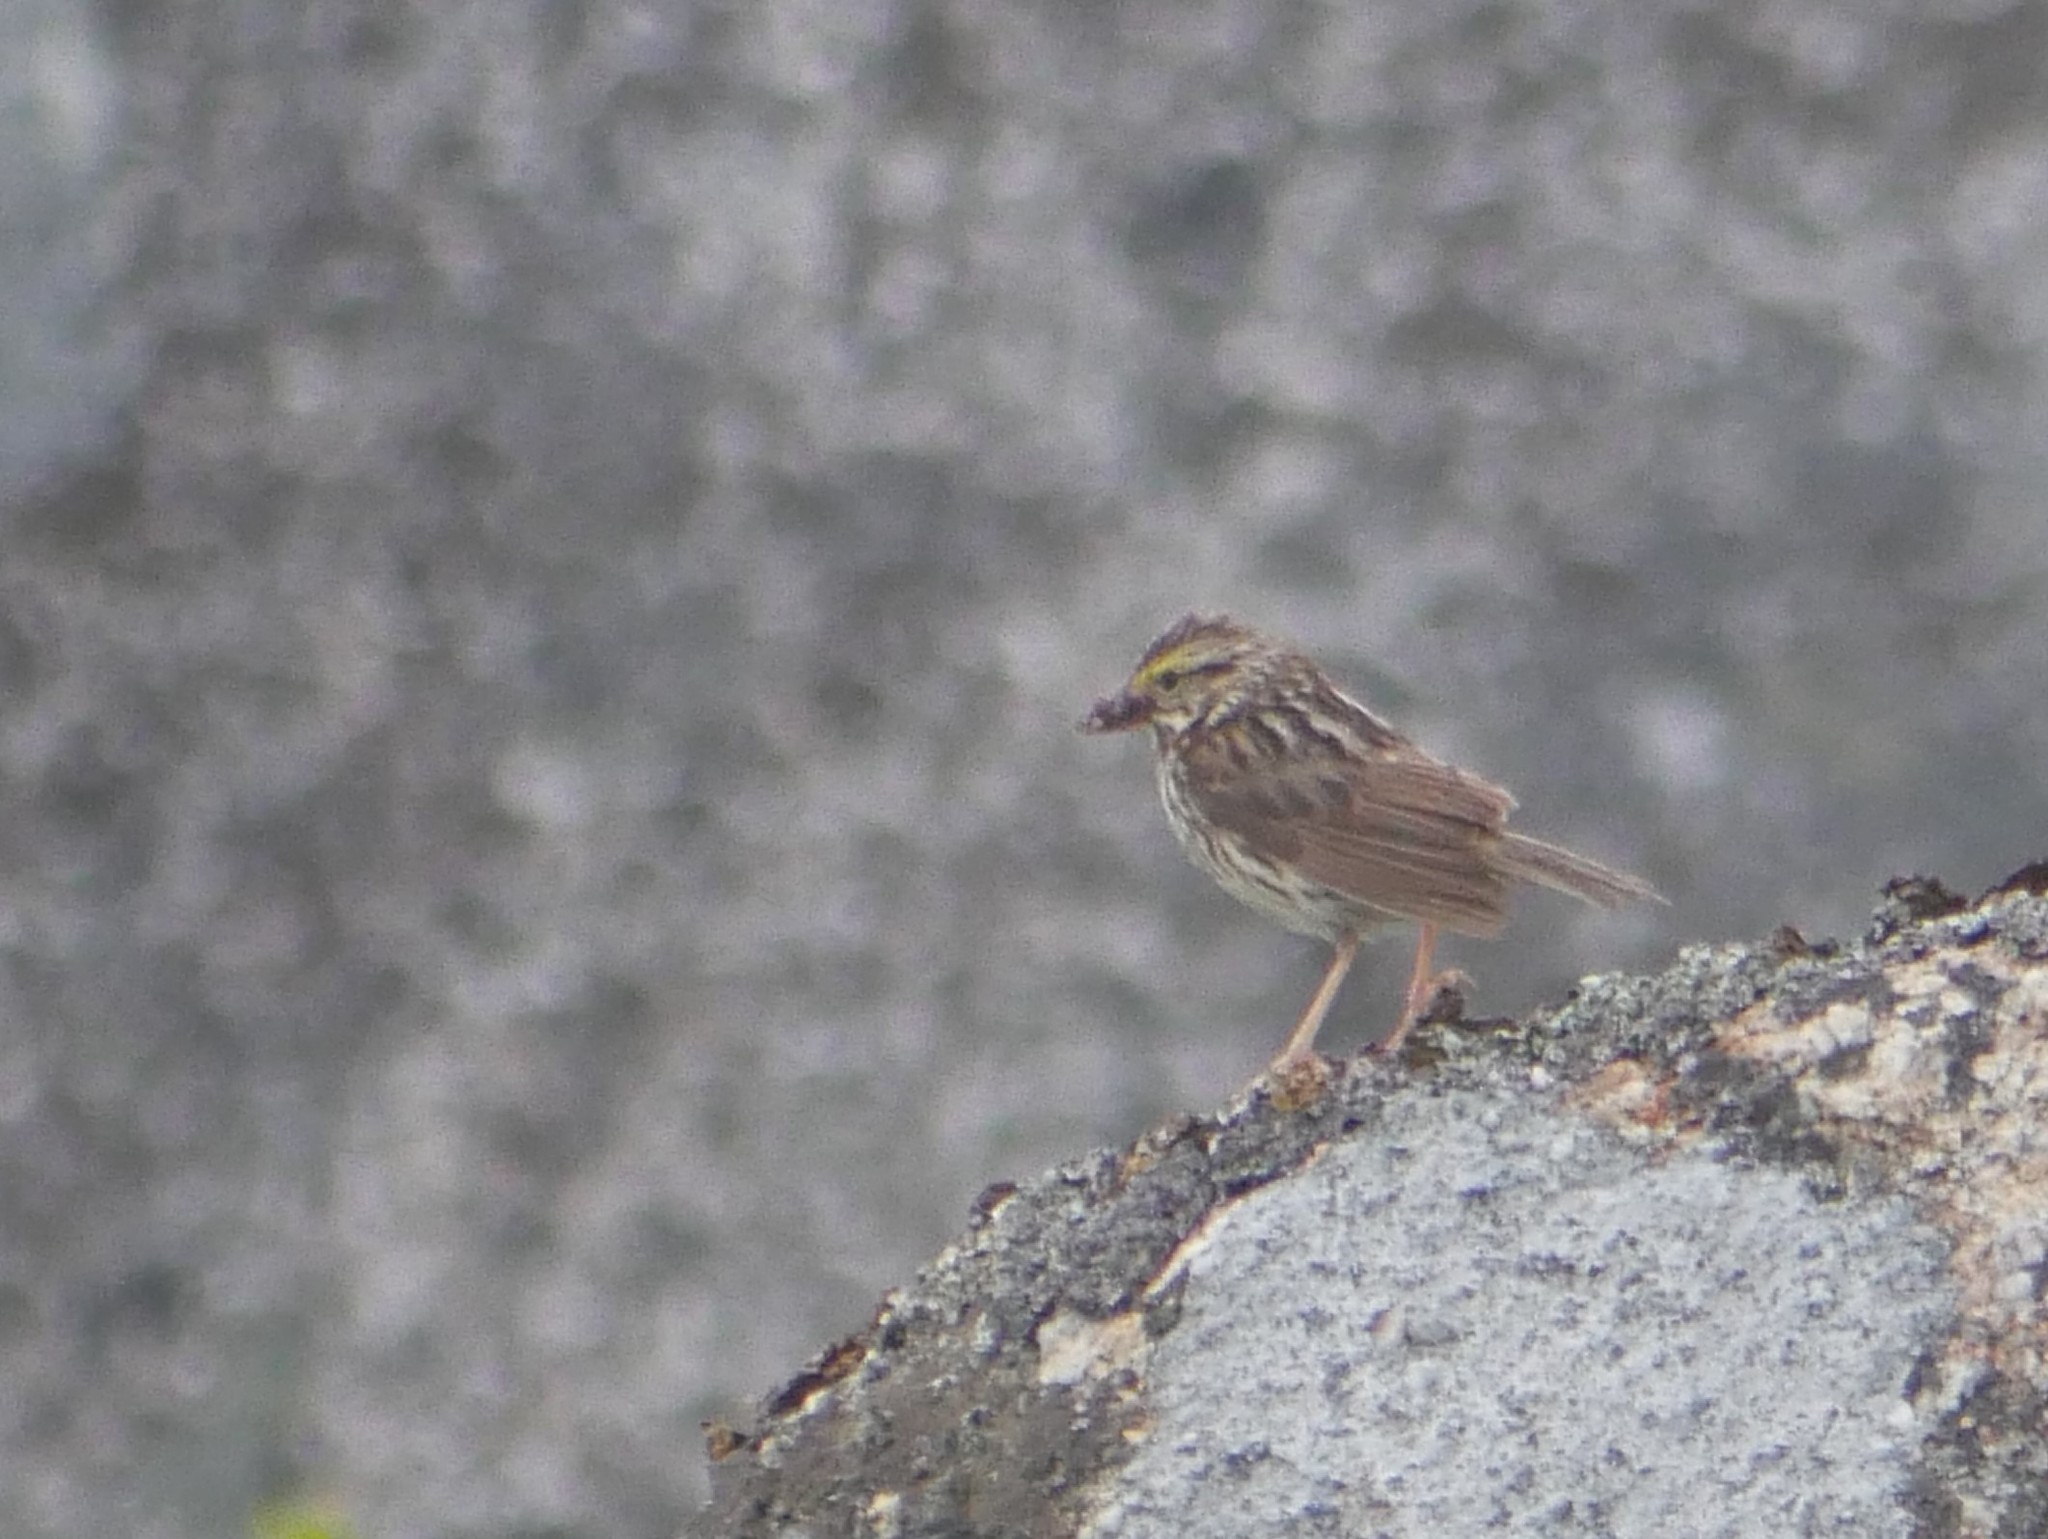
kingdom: Animalia
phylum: Chordata
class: Aves
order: Passeriformes
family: Passerellidae
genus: Passerculus
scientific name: Passerculus sandwichensis
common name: Savannah sparrow
